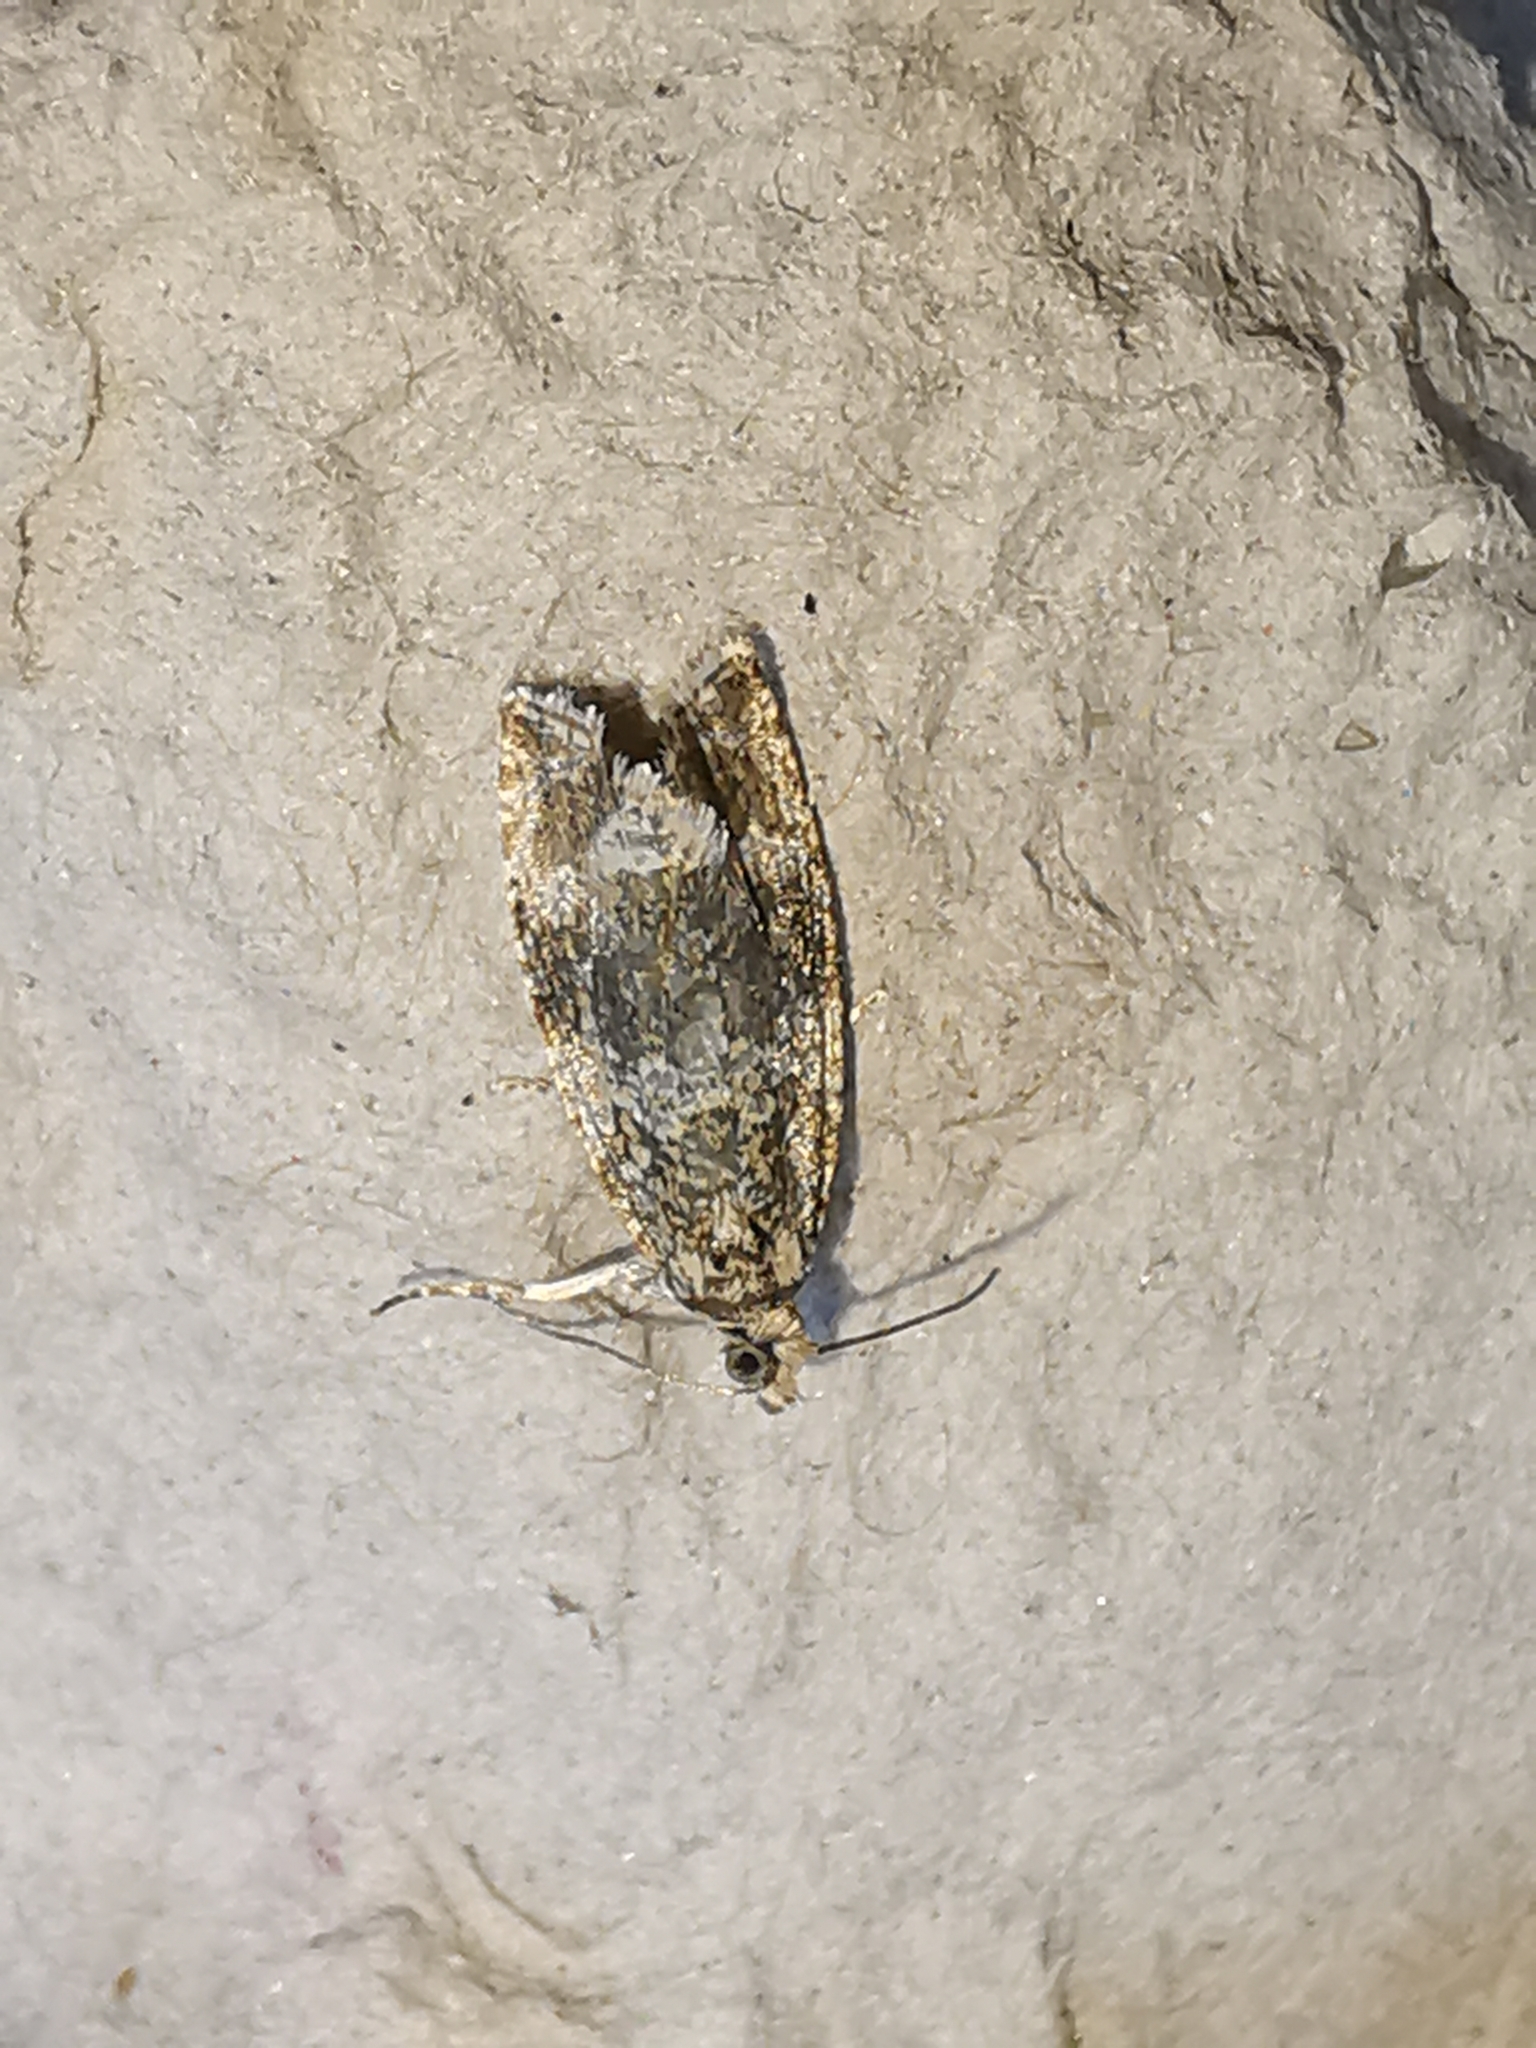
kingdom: Animalia
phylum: Arthropoda
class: Insecta
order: Lepidoptera
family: Tortricidae
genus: Syricoris
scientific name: Syricoris lacunana
